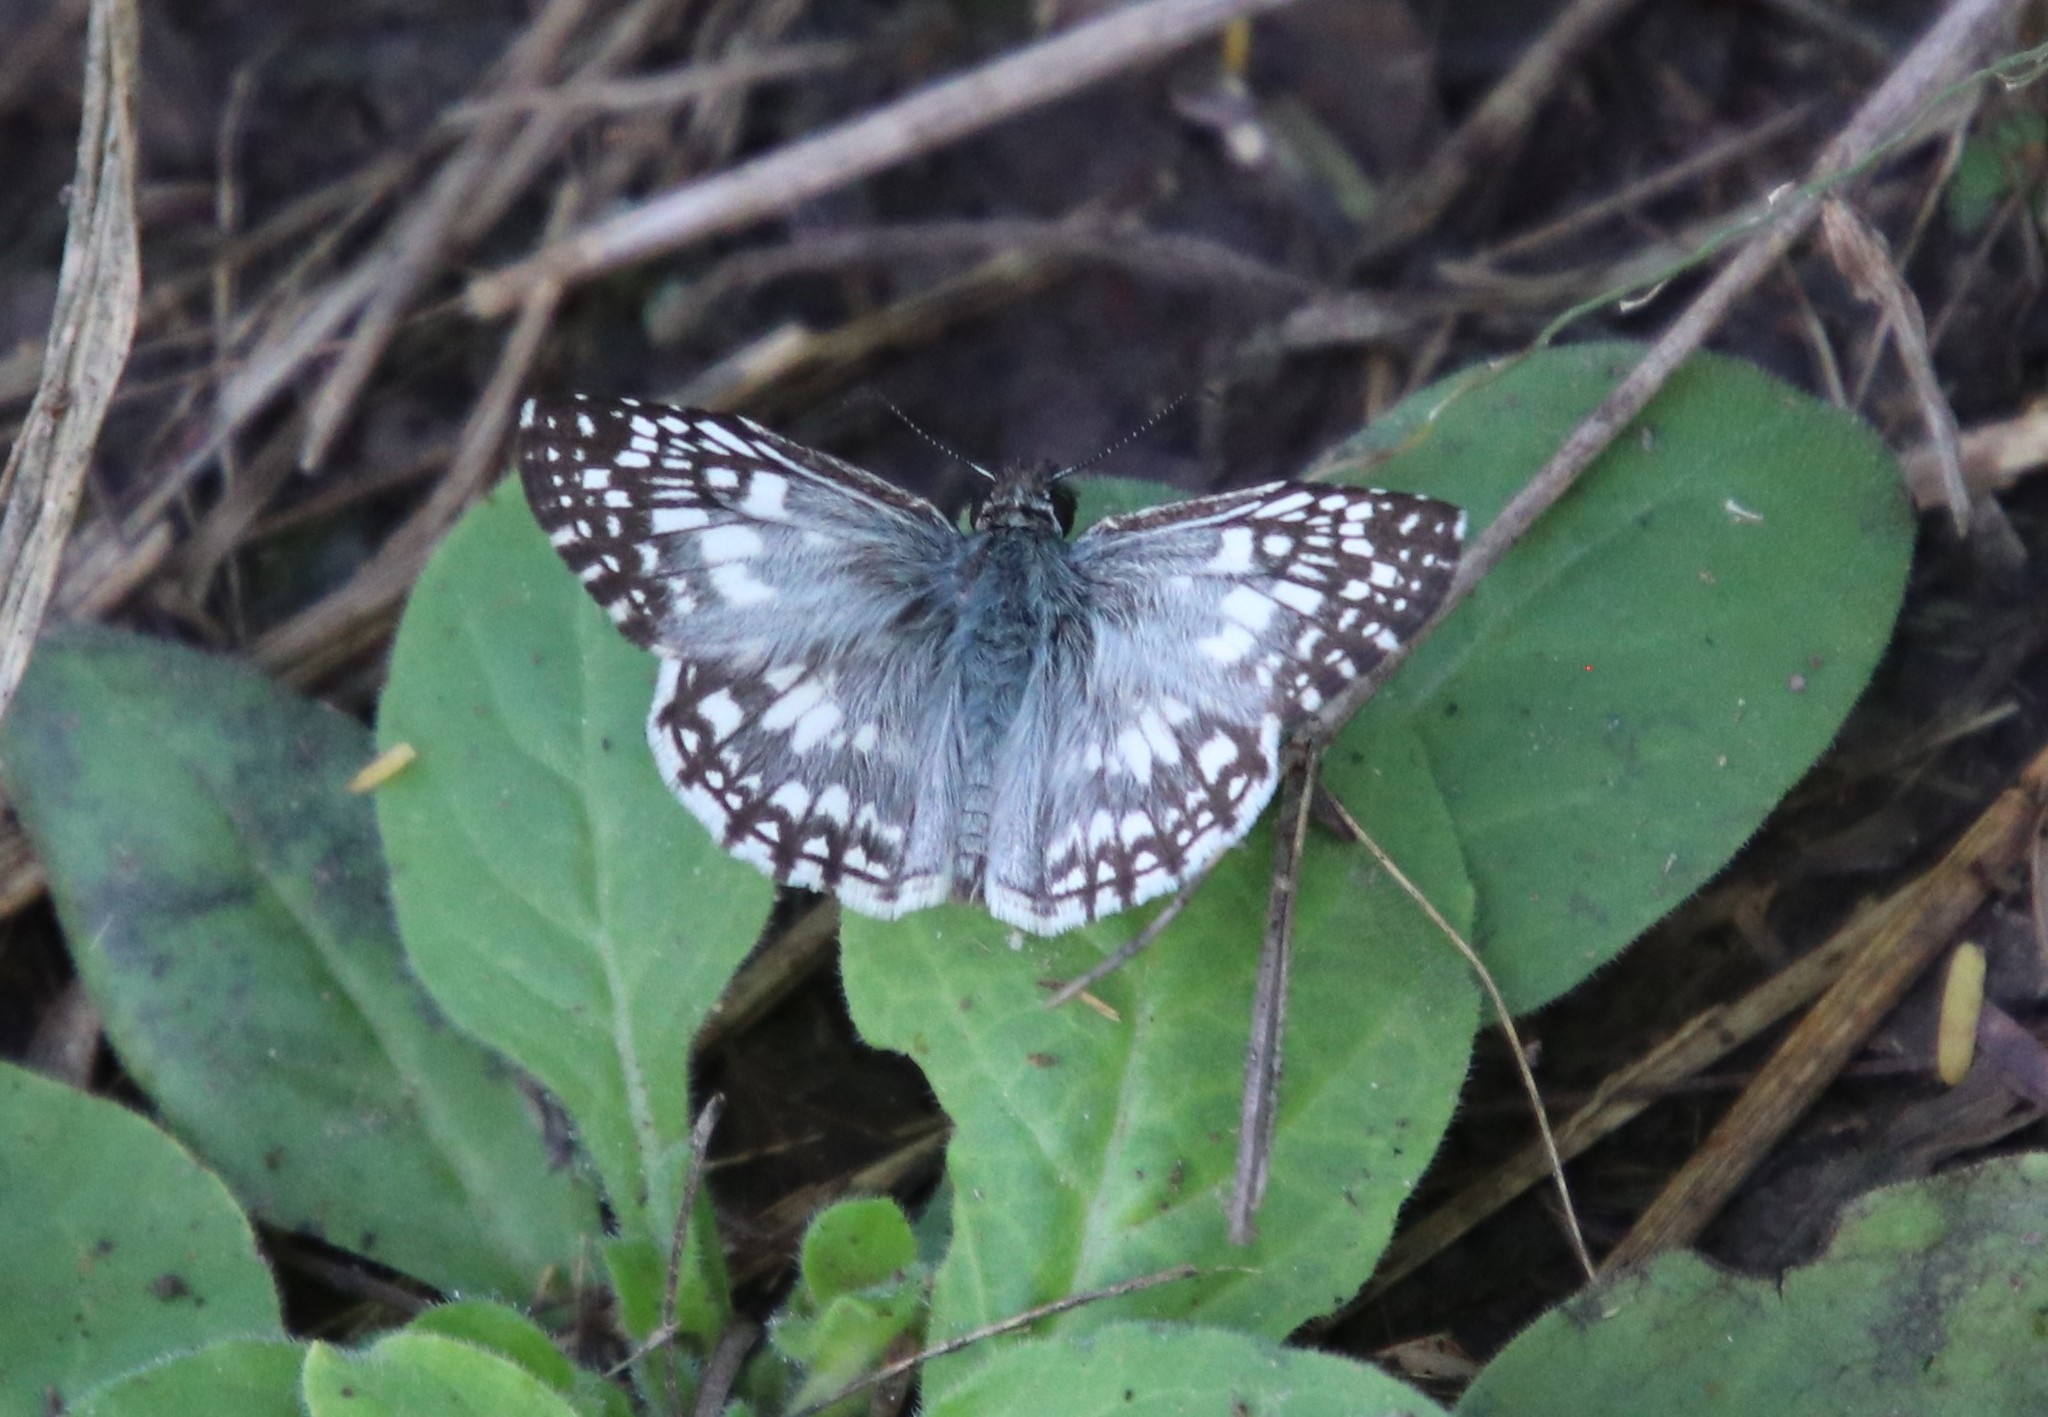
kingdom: Animalia
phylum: Arthropoda
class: Insecta
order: Lepidoptera
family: Hesperiidae
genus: Pyrgus
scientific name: Pyrgus oileus
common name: Tropical checkered-skipper
